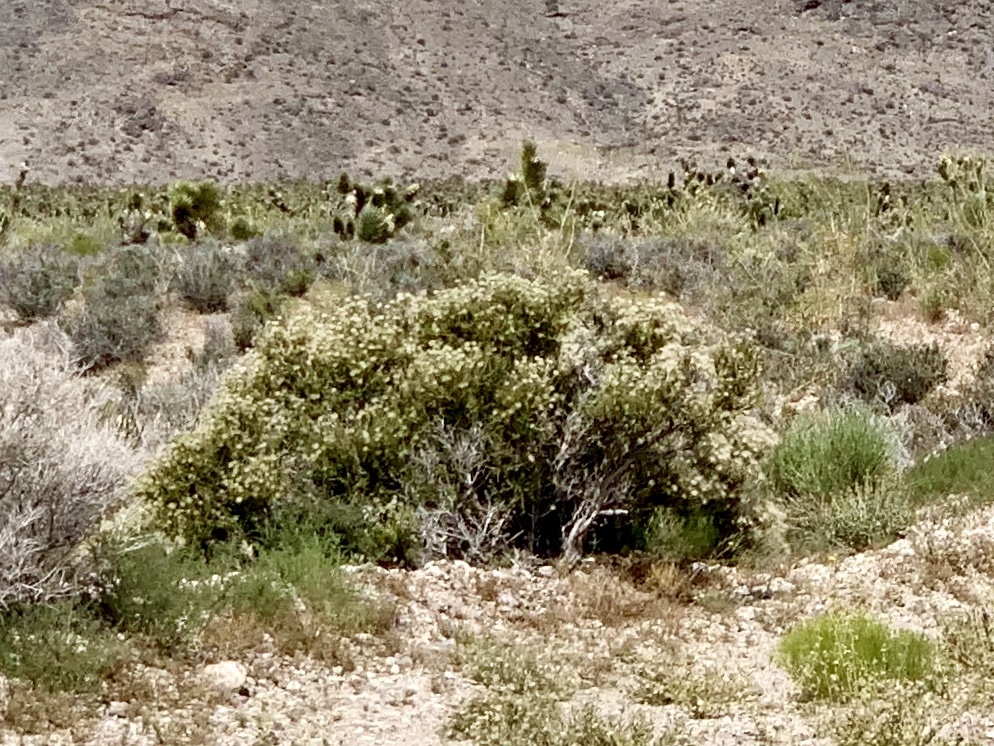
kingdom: Plantae
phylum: Tracheophyta
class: Magnoliopsida
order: Rosales
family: Rosaceae
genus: Fallugia
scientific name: Fallugia paradoxa
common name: Apache-plume
